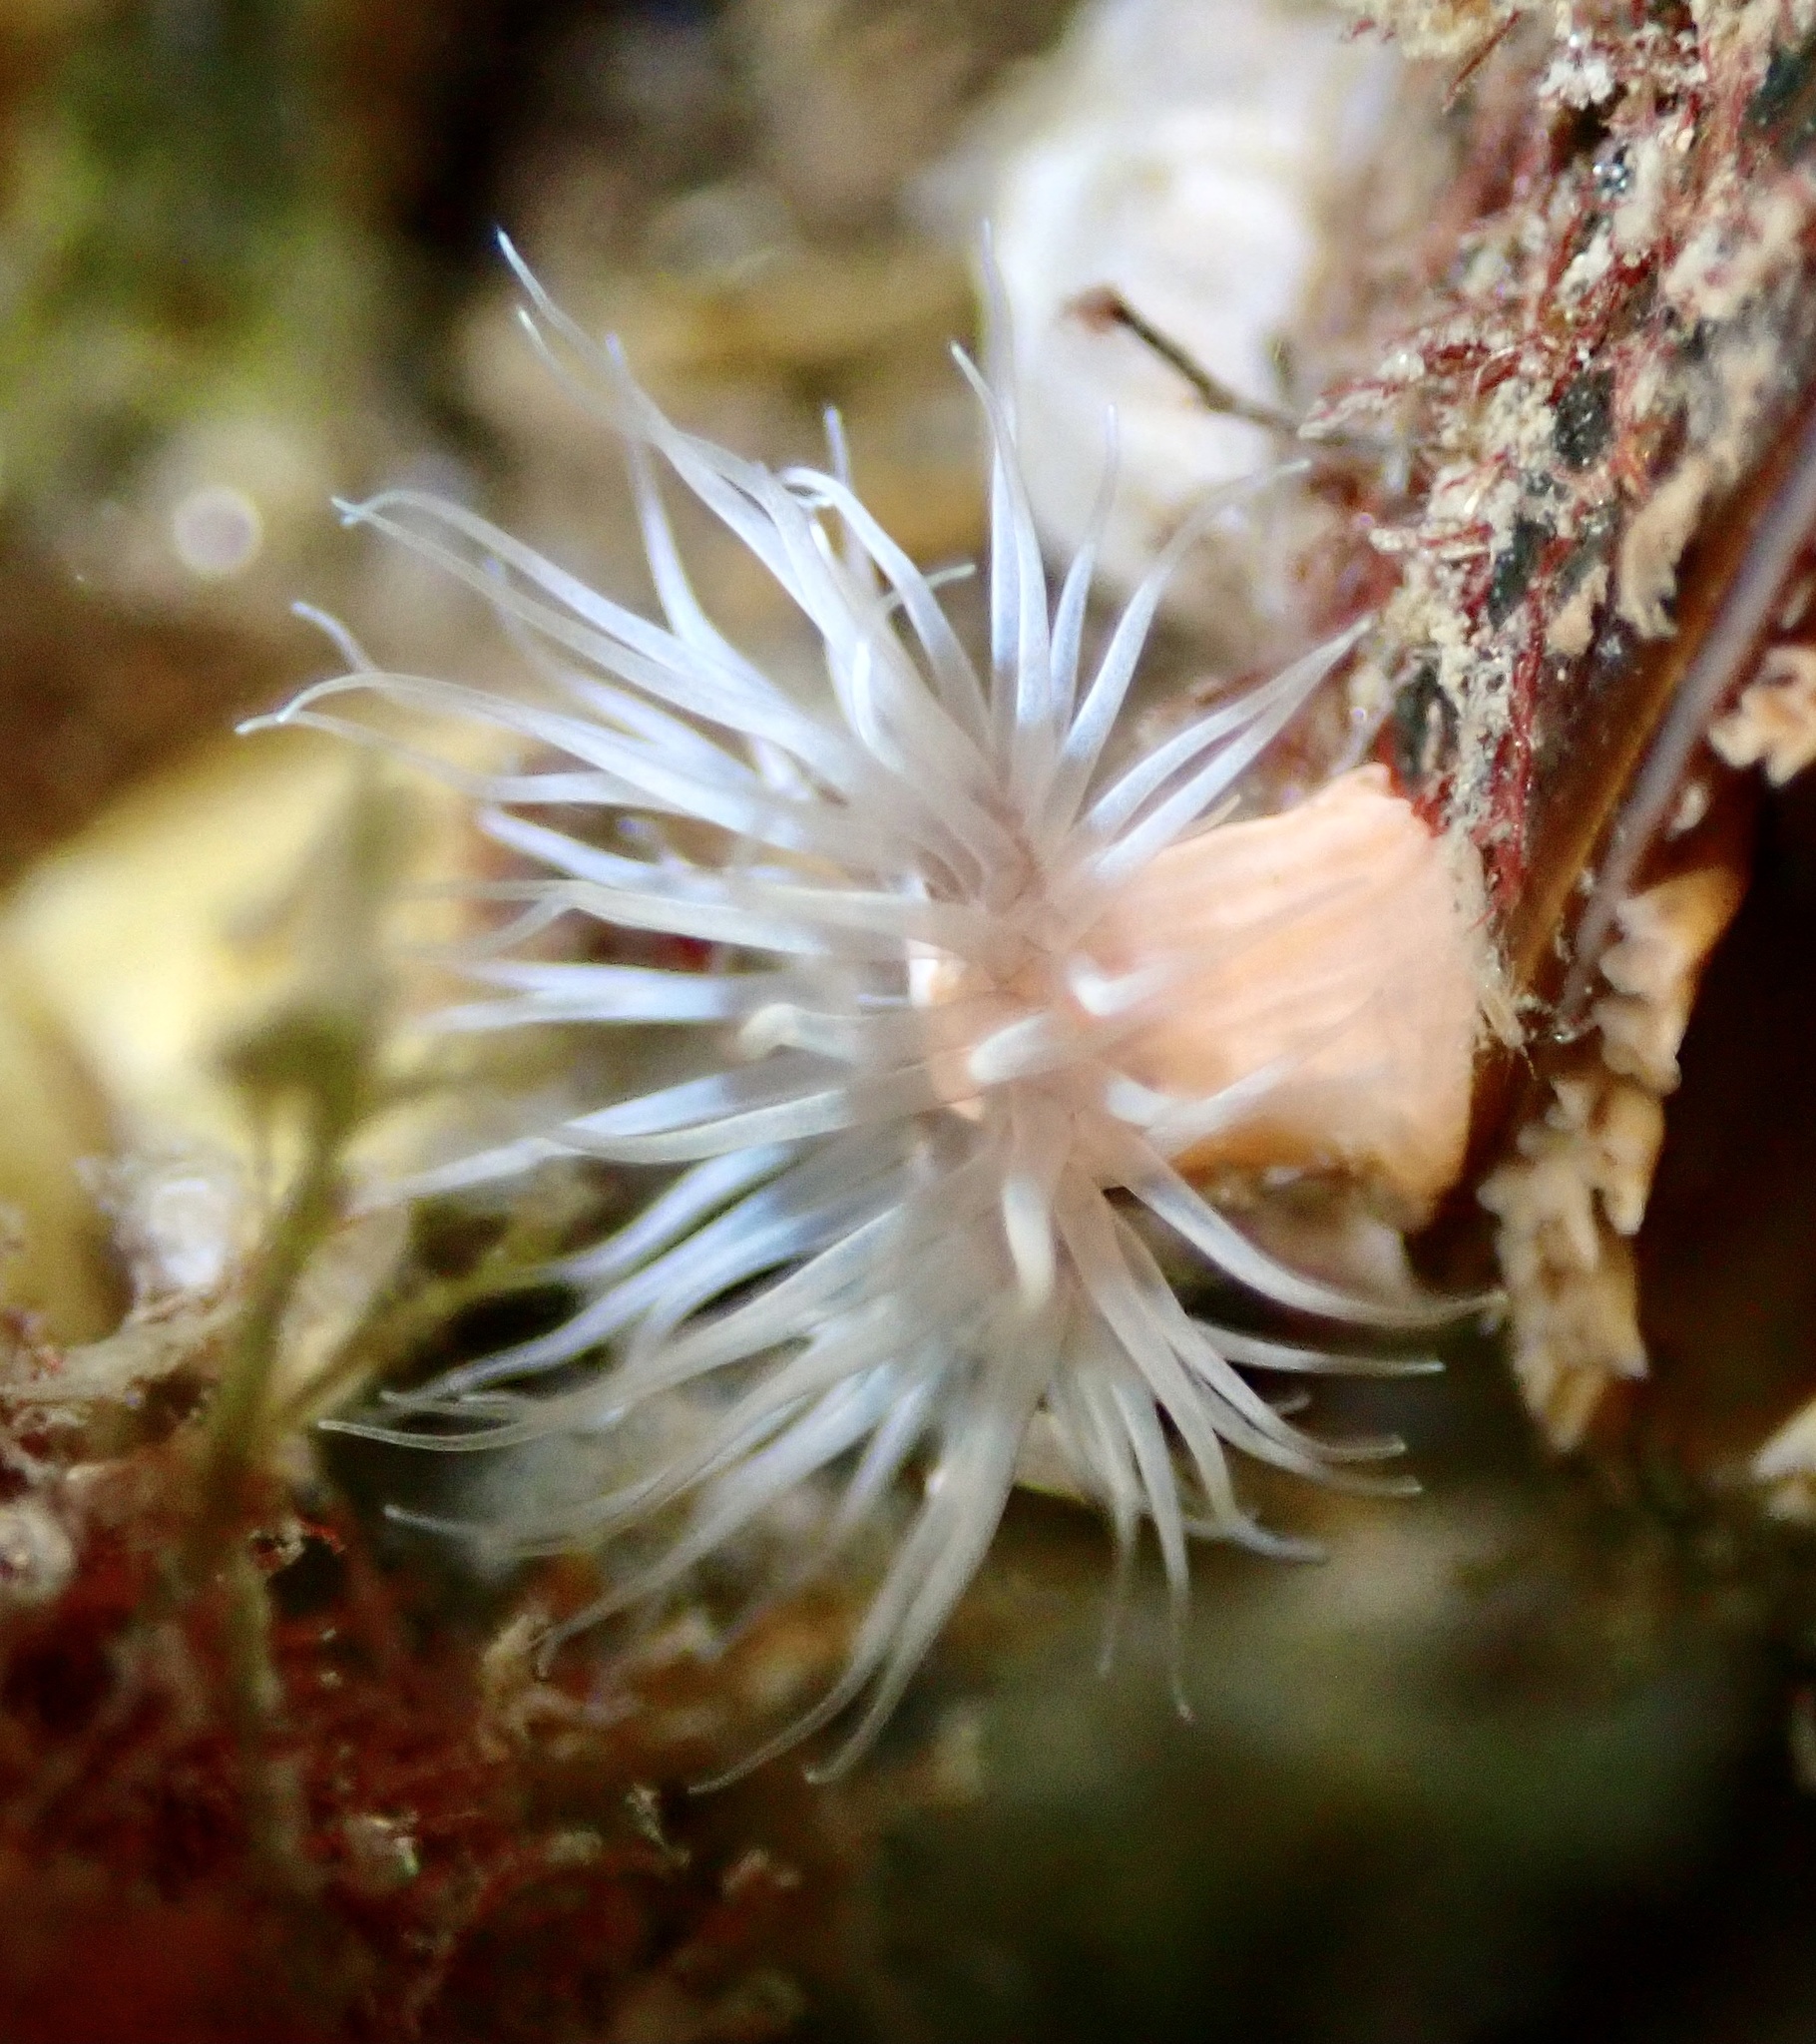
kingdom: Animalia
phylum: Cnidaria
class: Anthozoa
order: Actiniaria
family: Metridiidae
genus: Metridium
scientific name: Metridium senile
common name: Clonal plumose anemone
